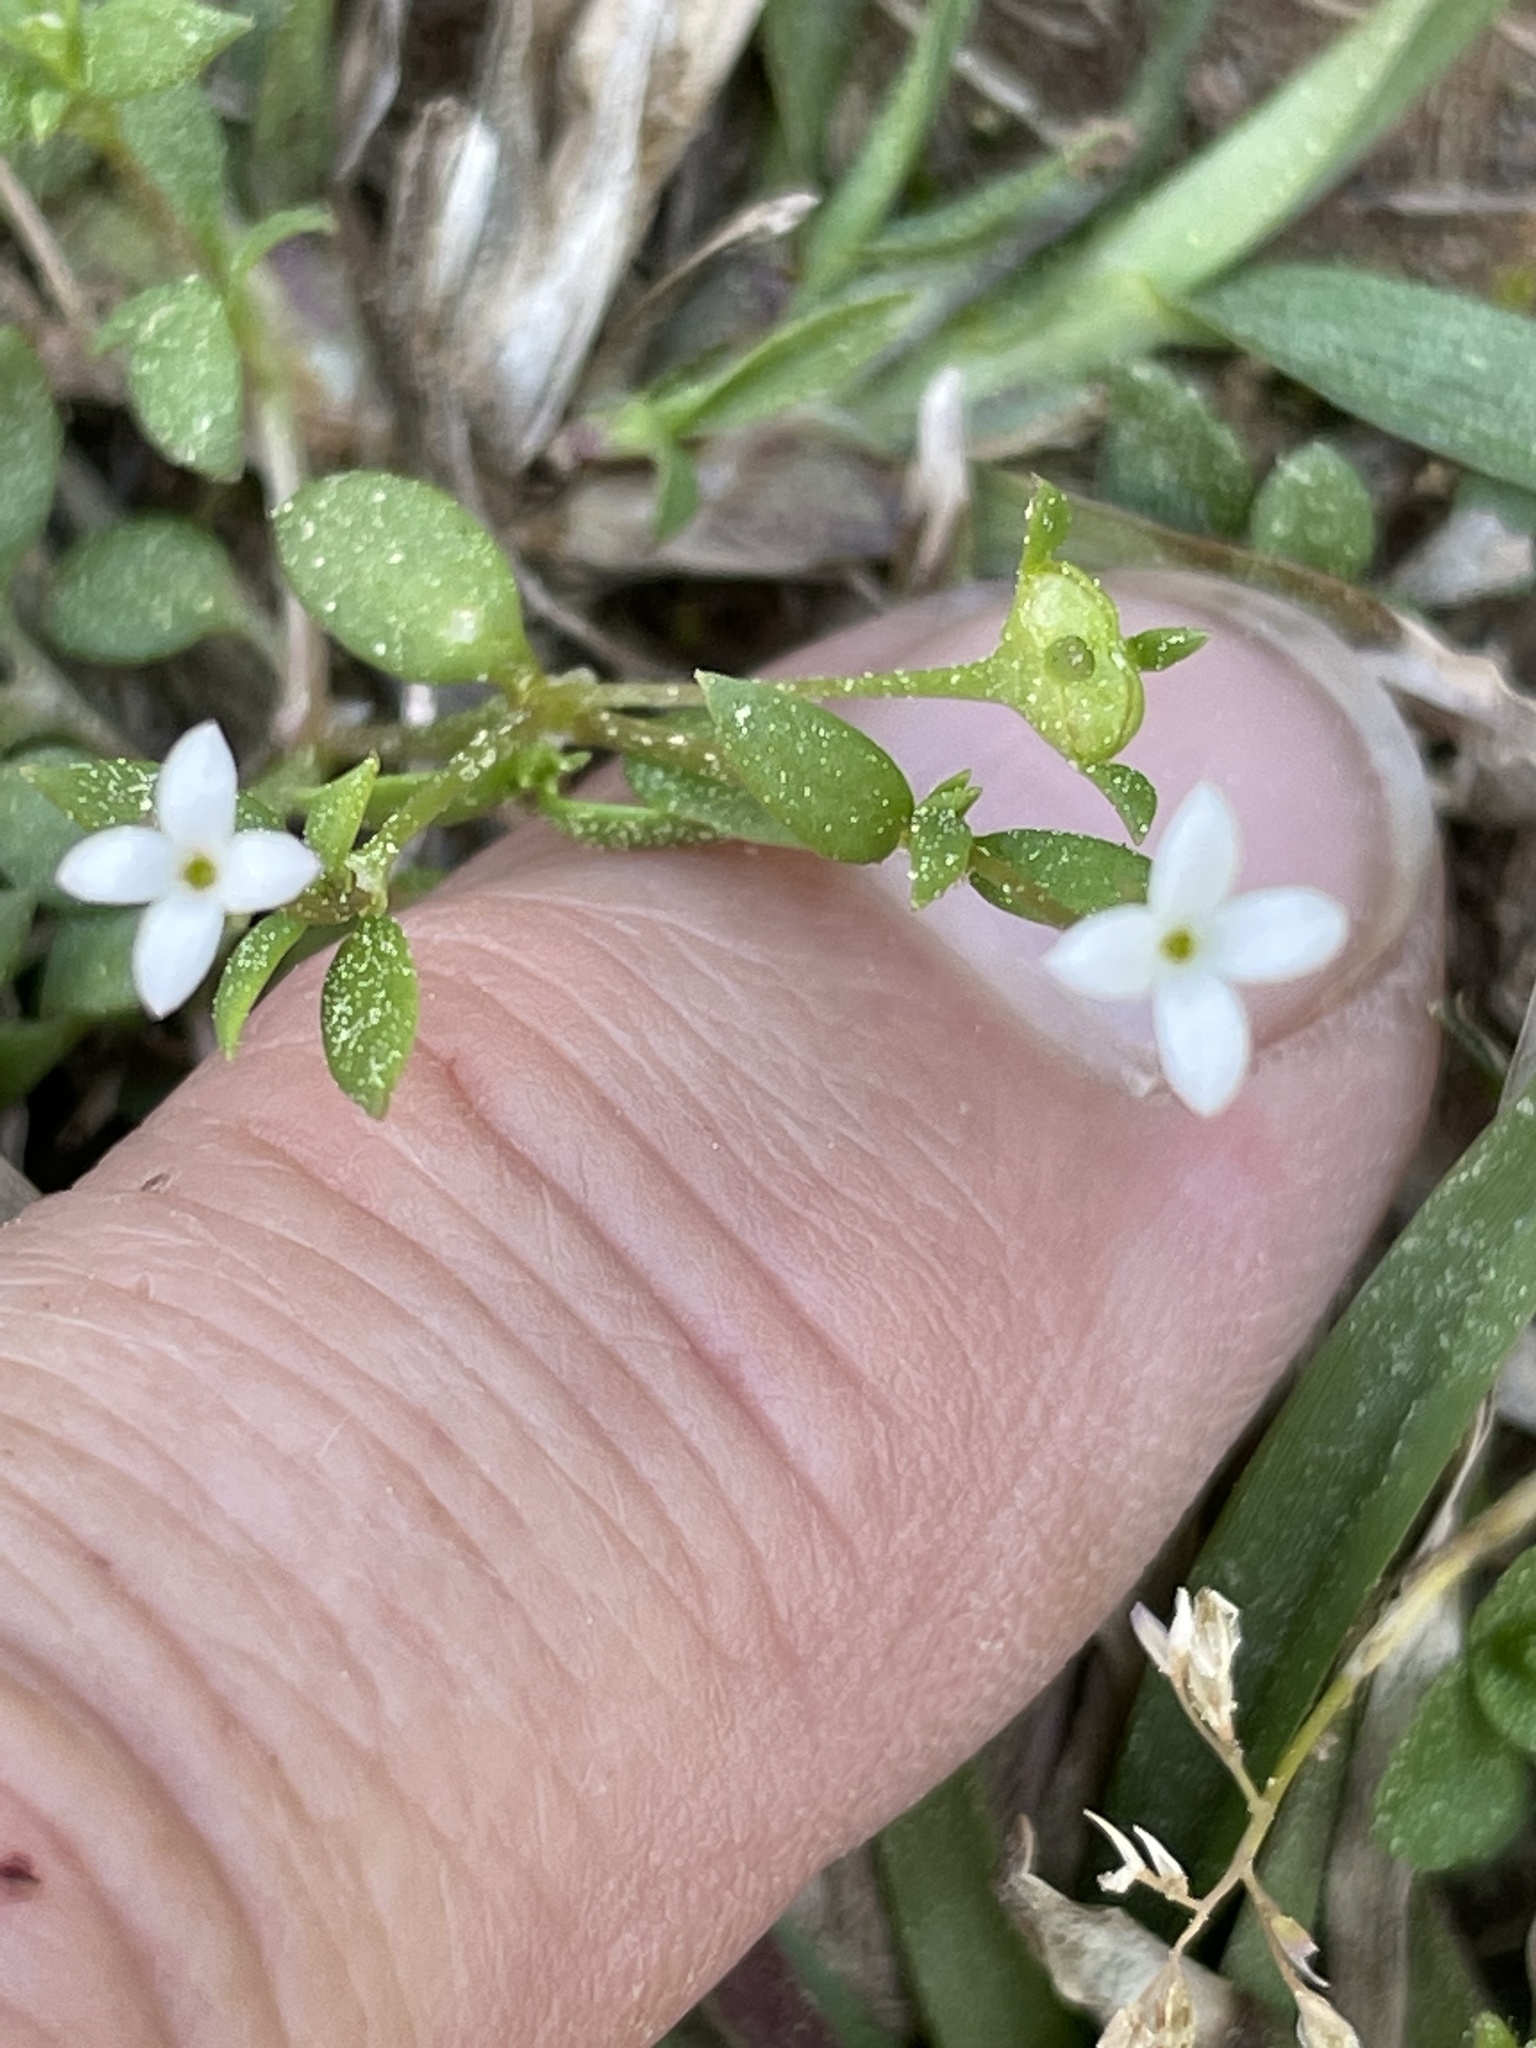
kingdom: Plantae
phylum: Tracheophyta
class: Magnoliopsida
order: Gentianales
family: Rubiaceae
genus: Houstonia
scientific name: Houstonia micrantha
